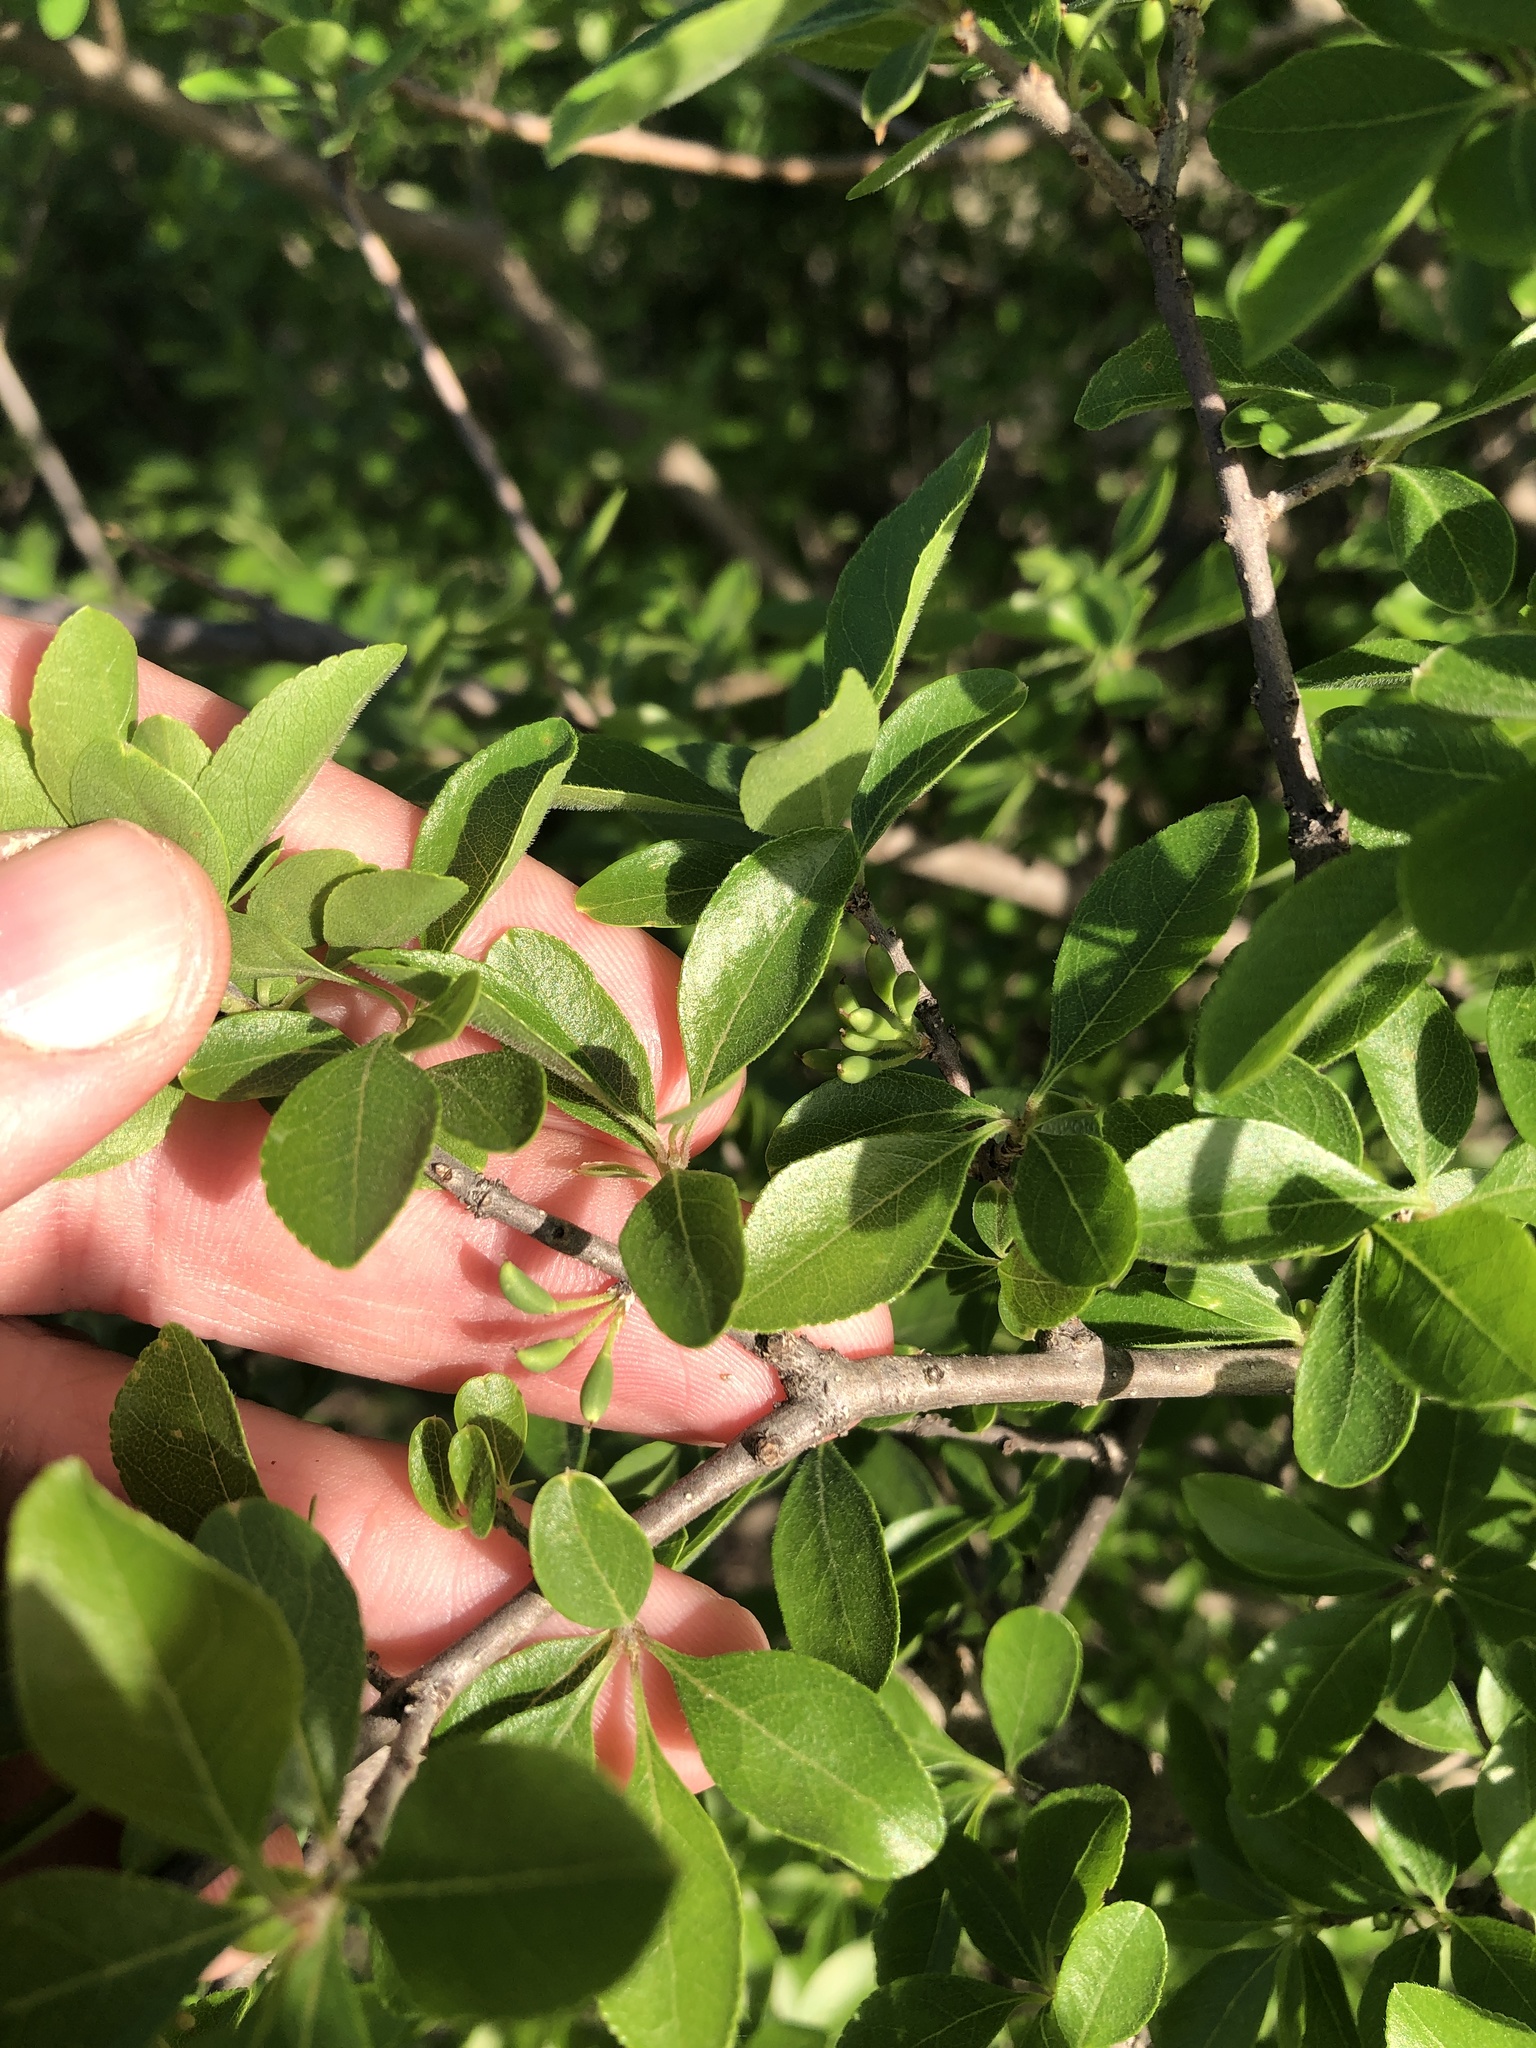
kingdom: Plantae
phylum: Tracheophyta
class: Magnoliopsida
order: Lamiales
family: Oleaceae
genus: Forestiera
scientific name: Forestiera pubescens
